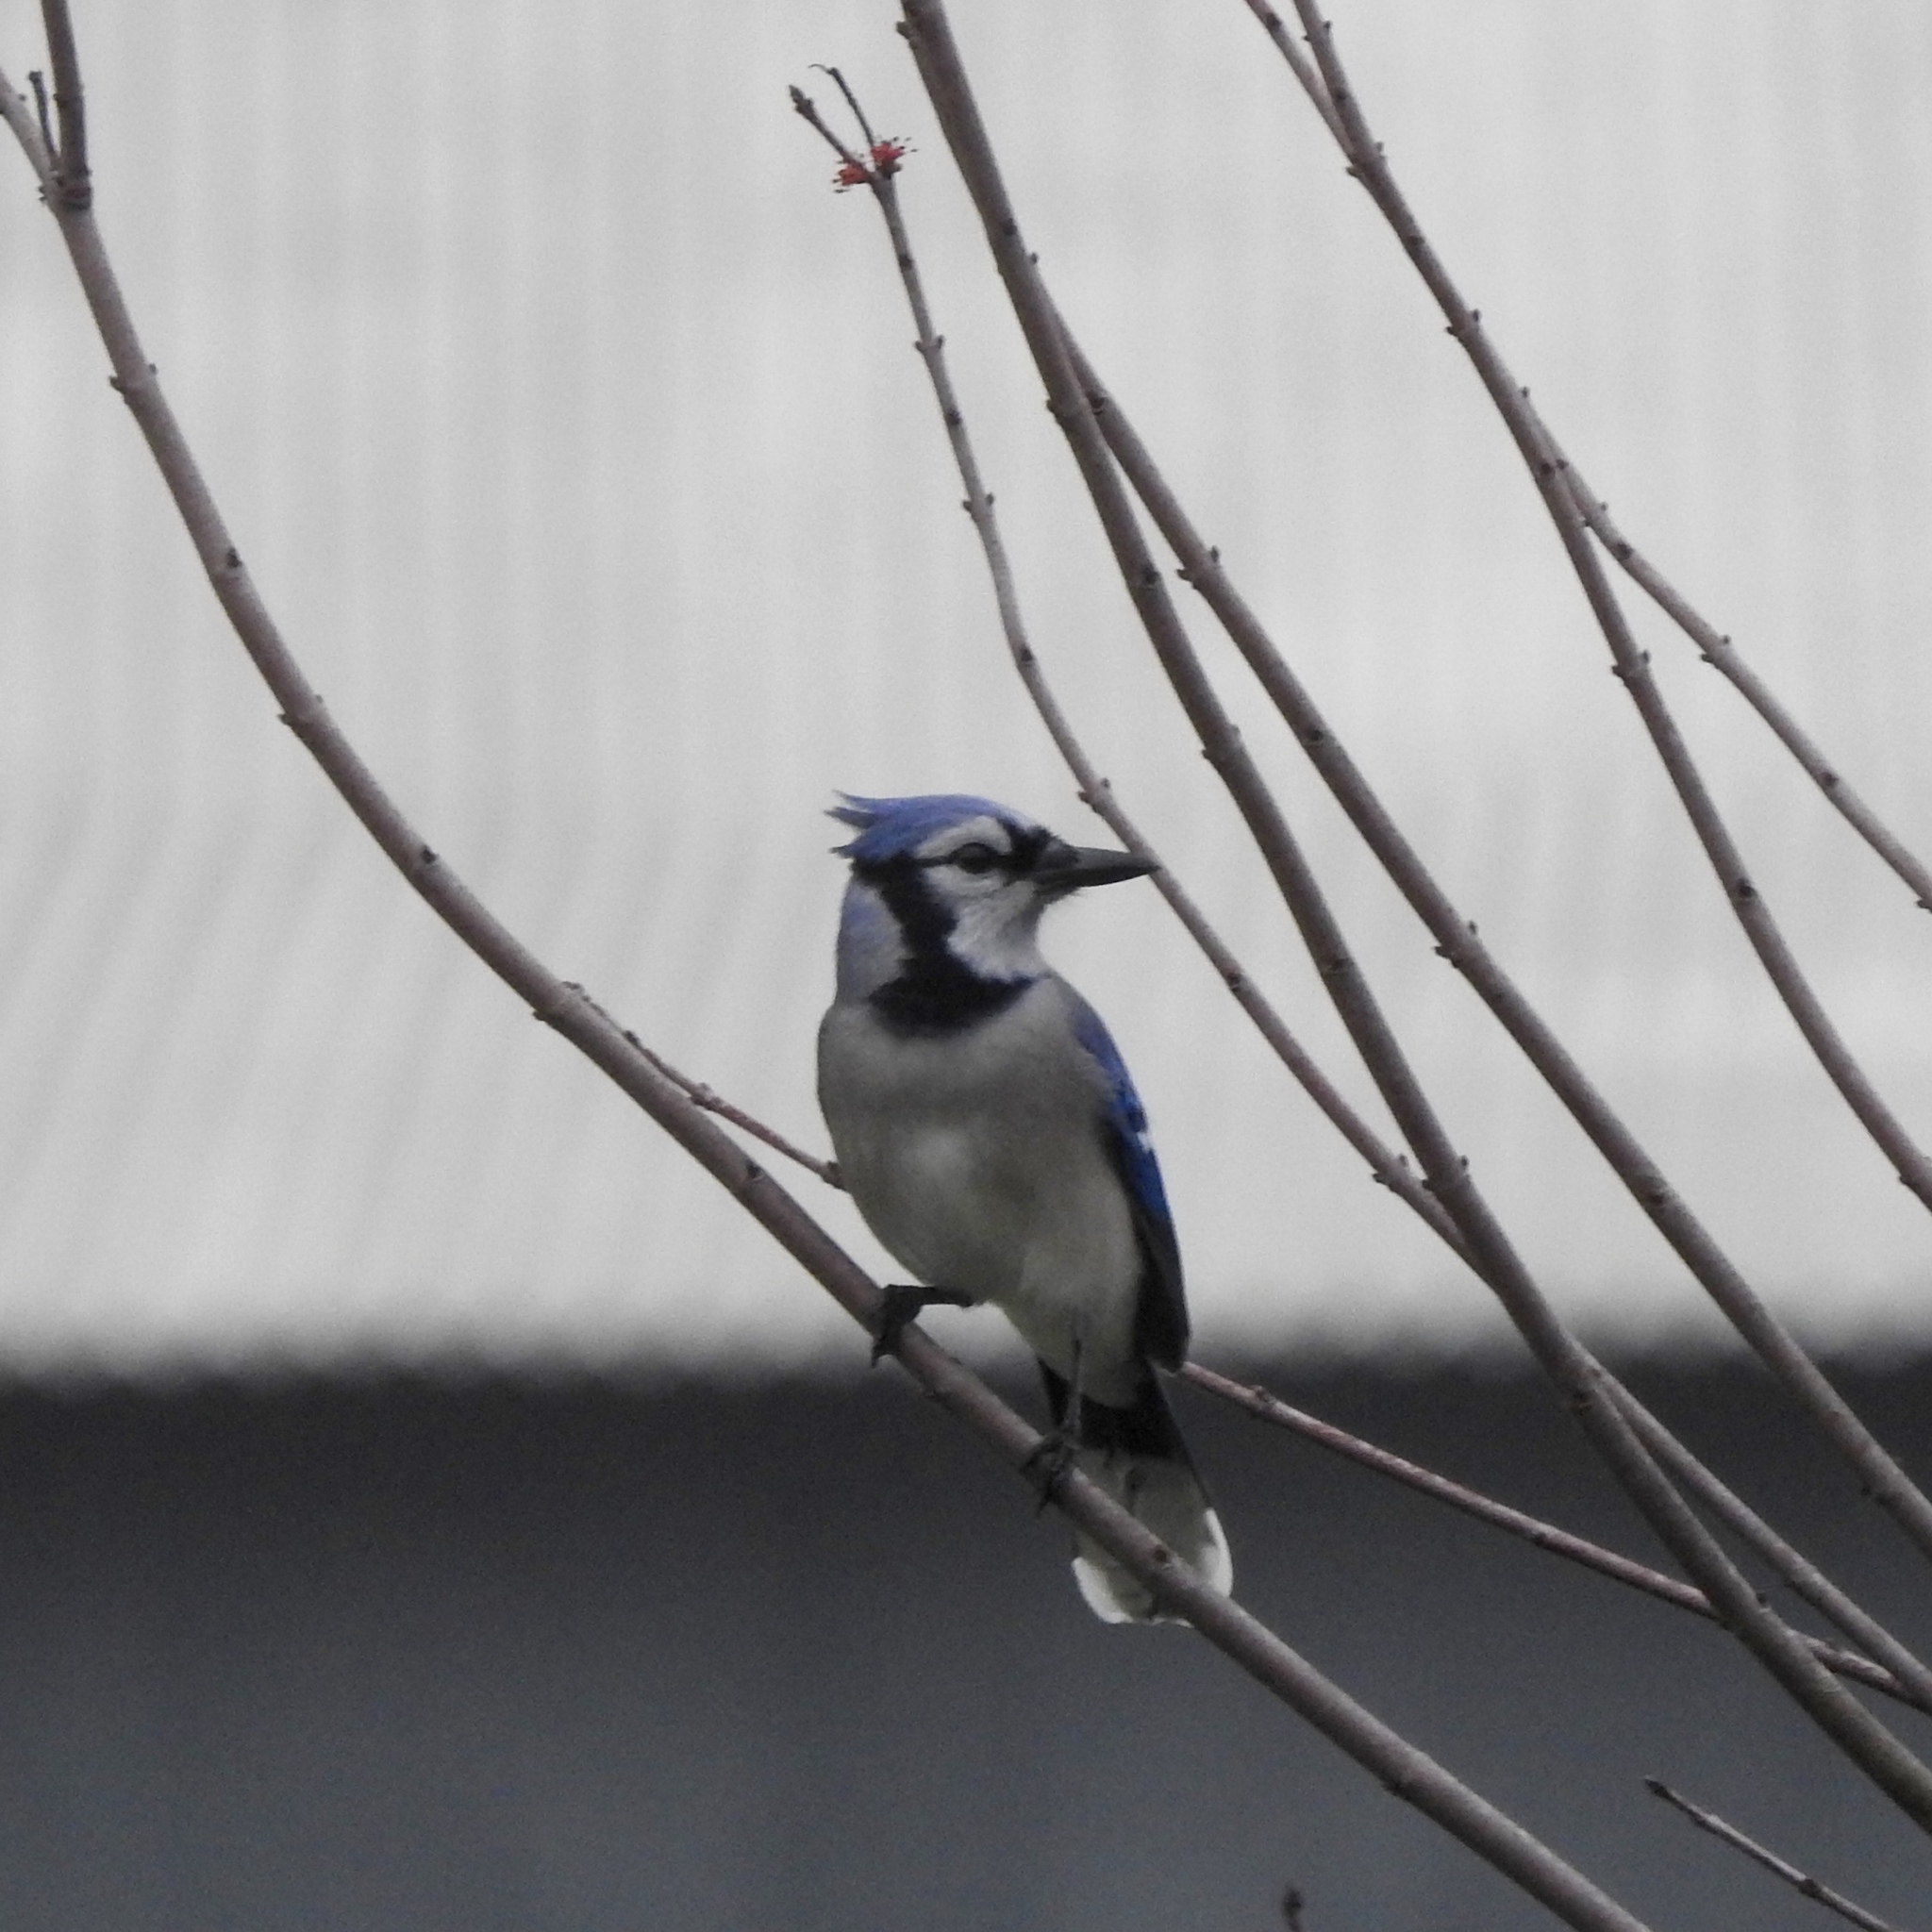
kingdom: Animalia
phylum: Chordata
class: Aves
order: Passeriformes
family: Corvidae
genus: Cyanocitta
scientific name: Cyanocitta cristata
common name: Blue jay
